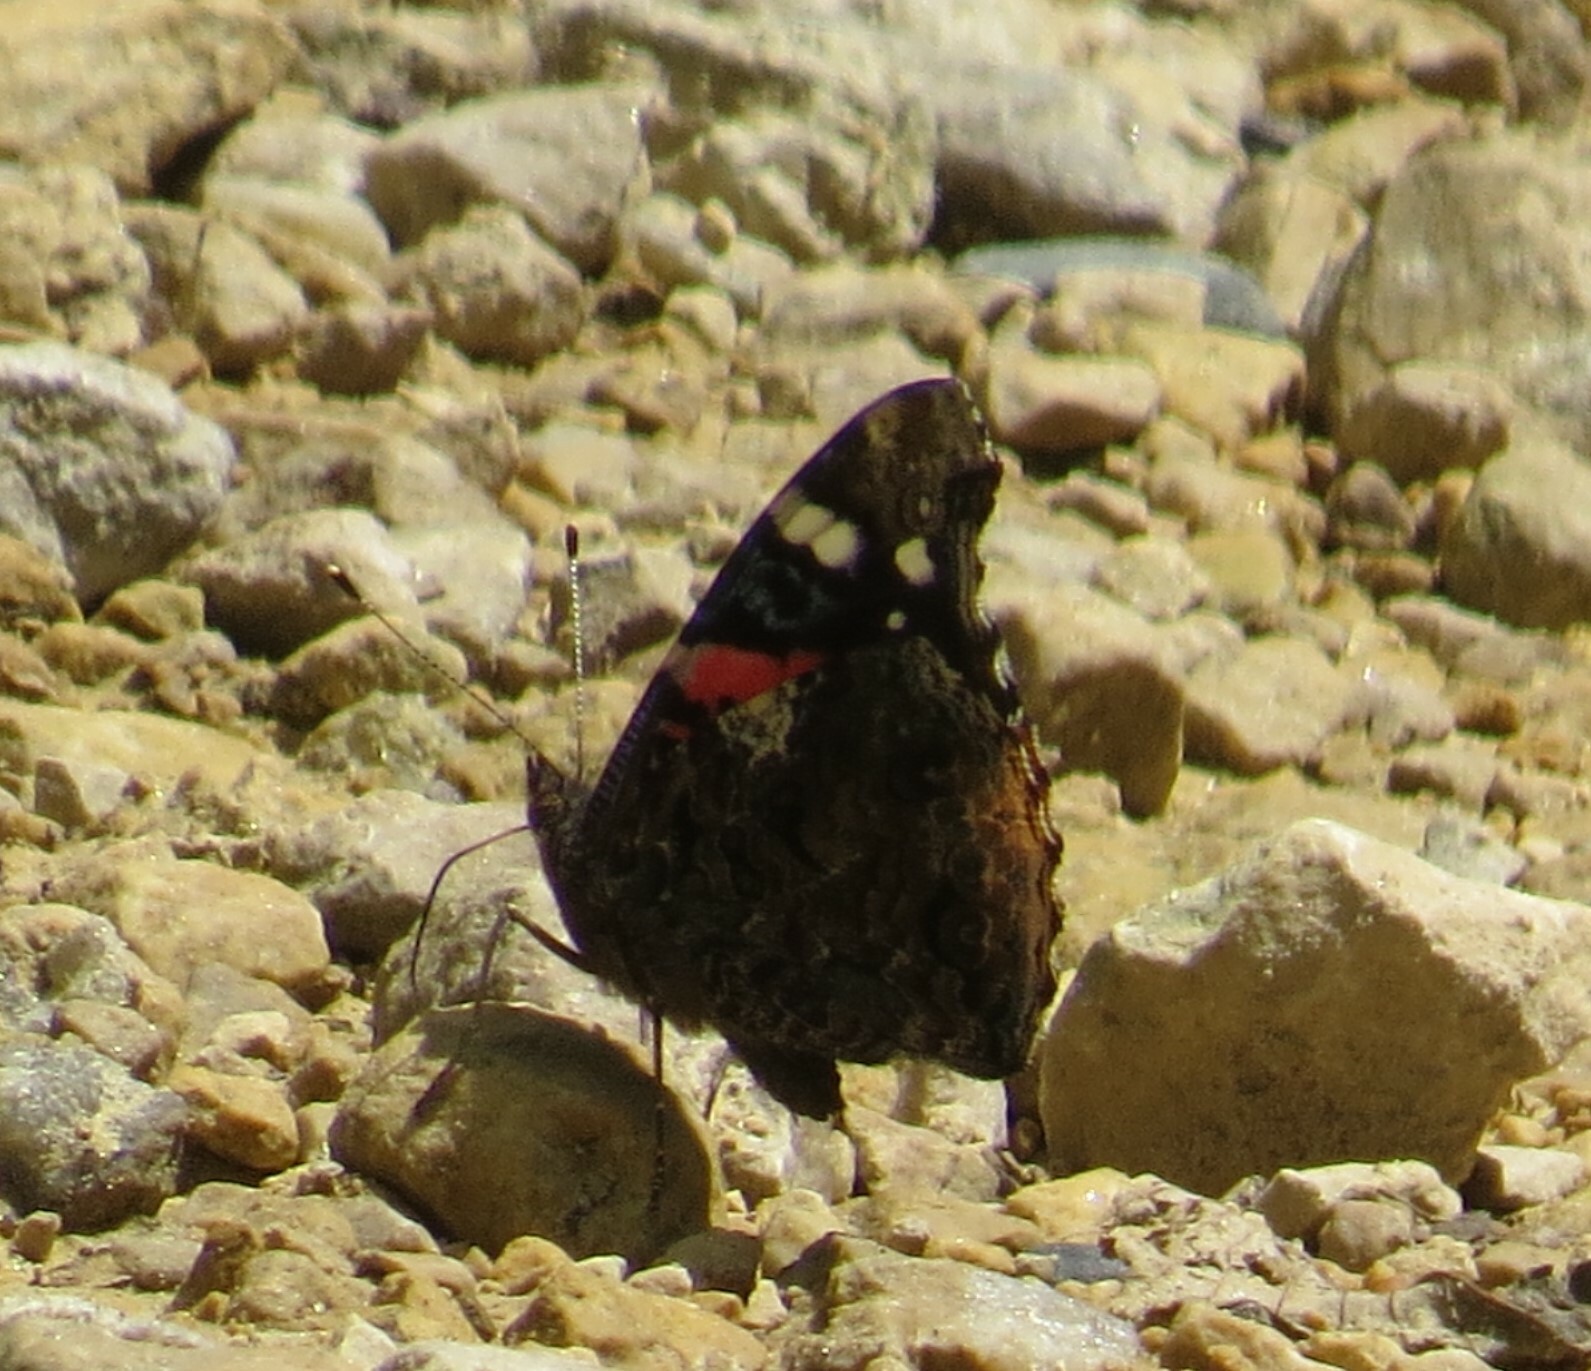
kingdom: Animalia
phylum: Arthropoda
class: Insecta
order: Lepidoptera
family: Nymphalidae
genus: Vanessa
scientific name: Vanessa atalanta
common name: Red admiral
